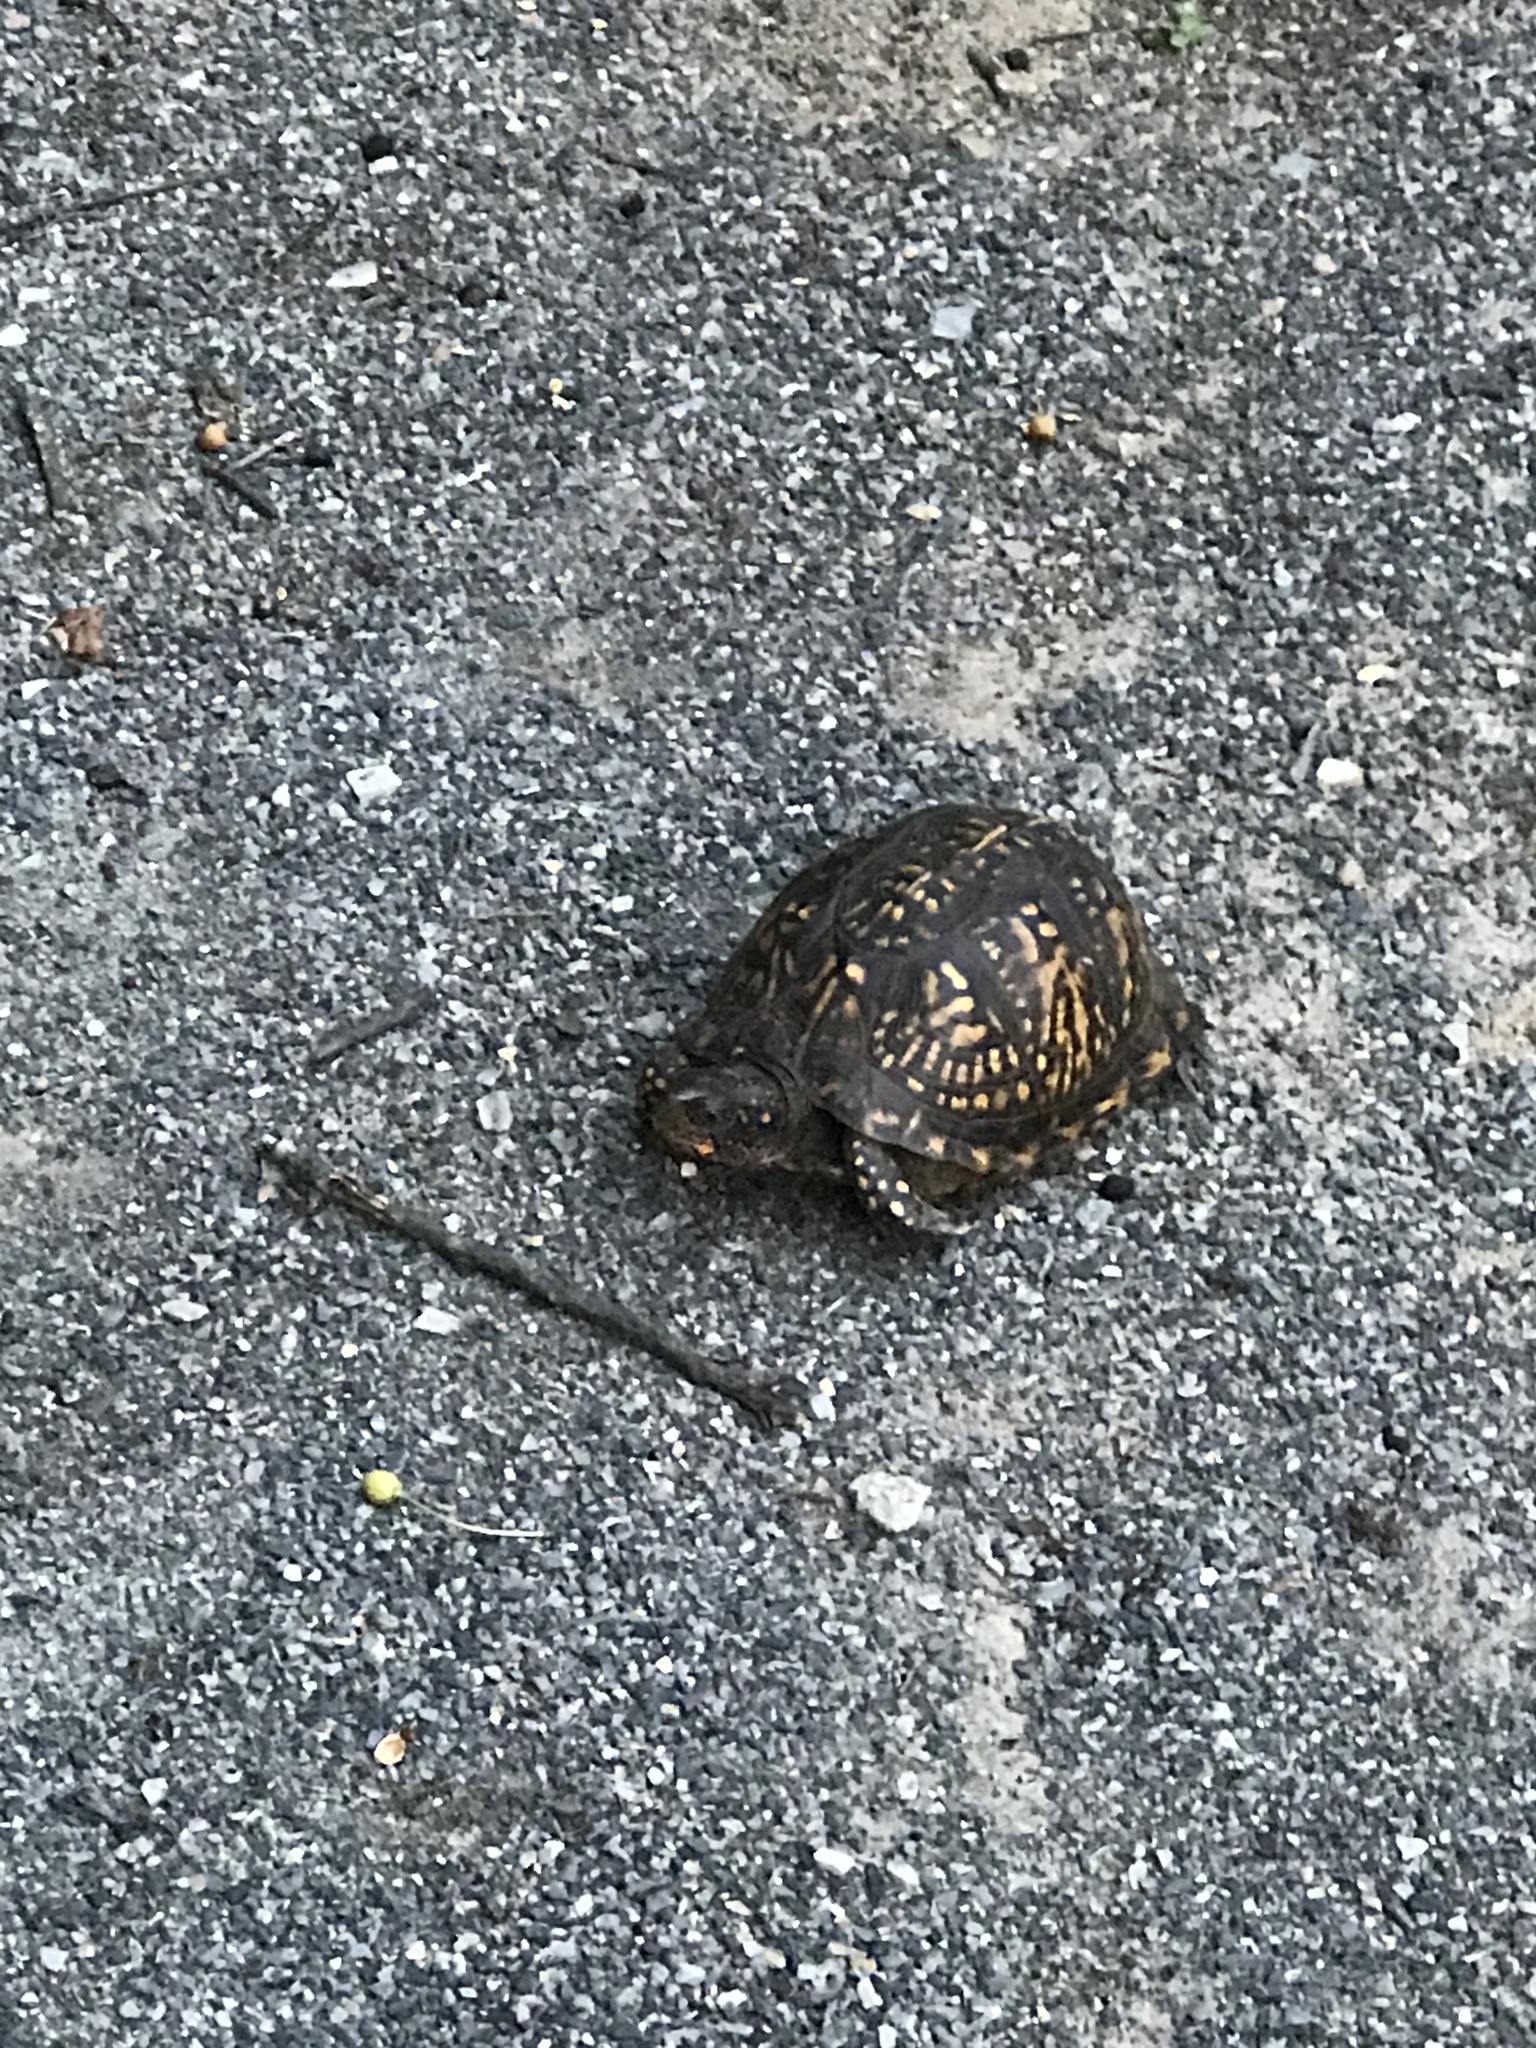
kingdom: Animalia
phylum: Chordata
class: Testudines
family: Emydidae
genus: Terrapene
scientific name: Terrapene carolina
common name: Common box turtle
